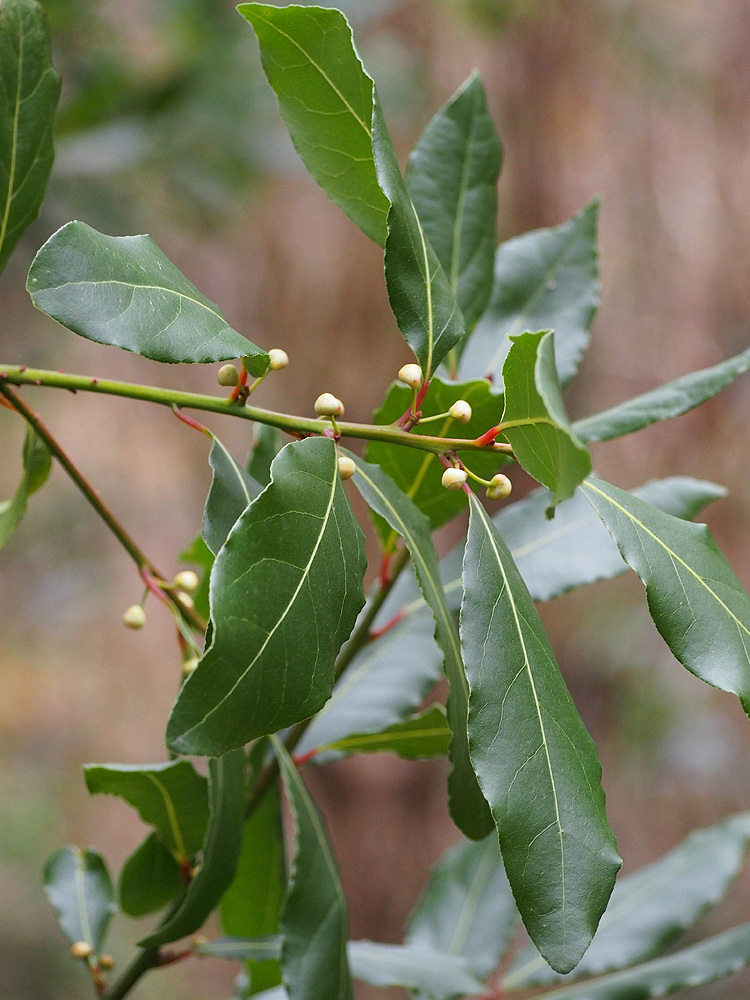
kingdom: Plantae
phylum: Tracheophyta
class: Magnoliopsida
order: Laurales
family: Lauraceae
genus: Laurus
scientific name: Laurus nobilis
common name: Bay
